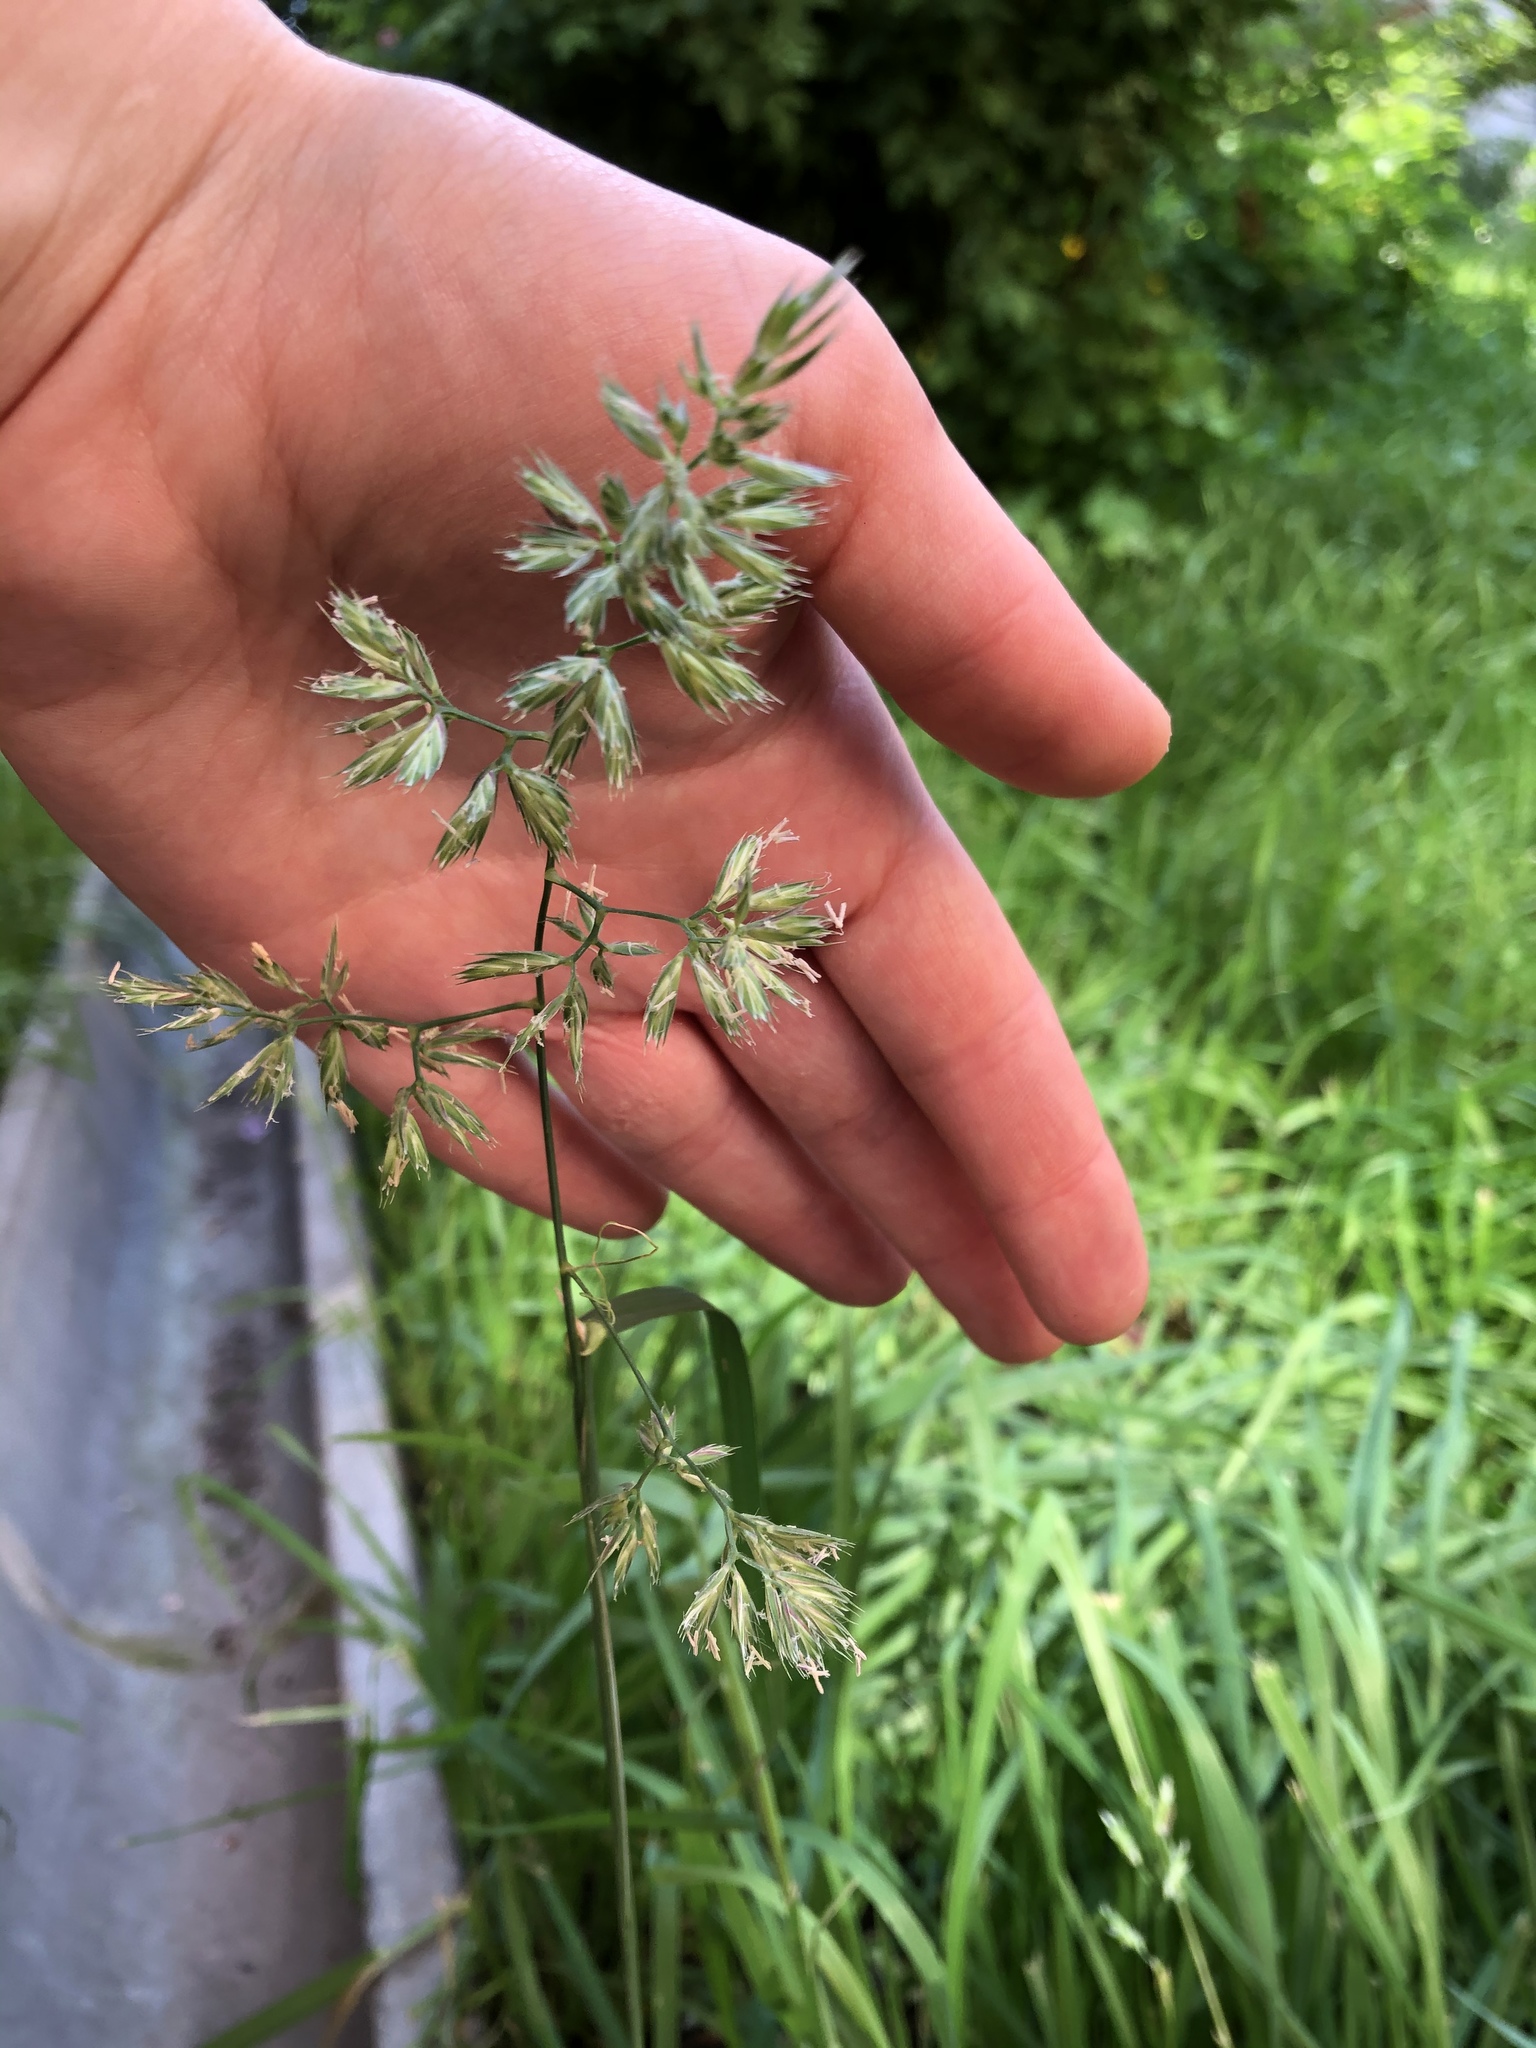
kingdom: Plantae
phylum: Tracheophyta
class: Liliopsida
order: Poales
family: Poaceae
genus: Dactylis
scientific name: Dactylis glomerata
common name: Orchardgrass
